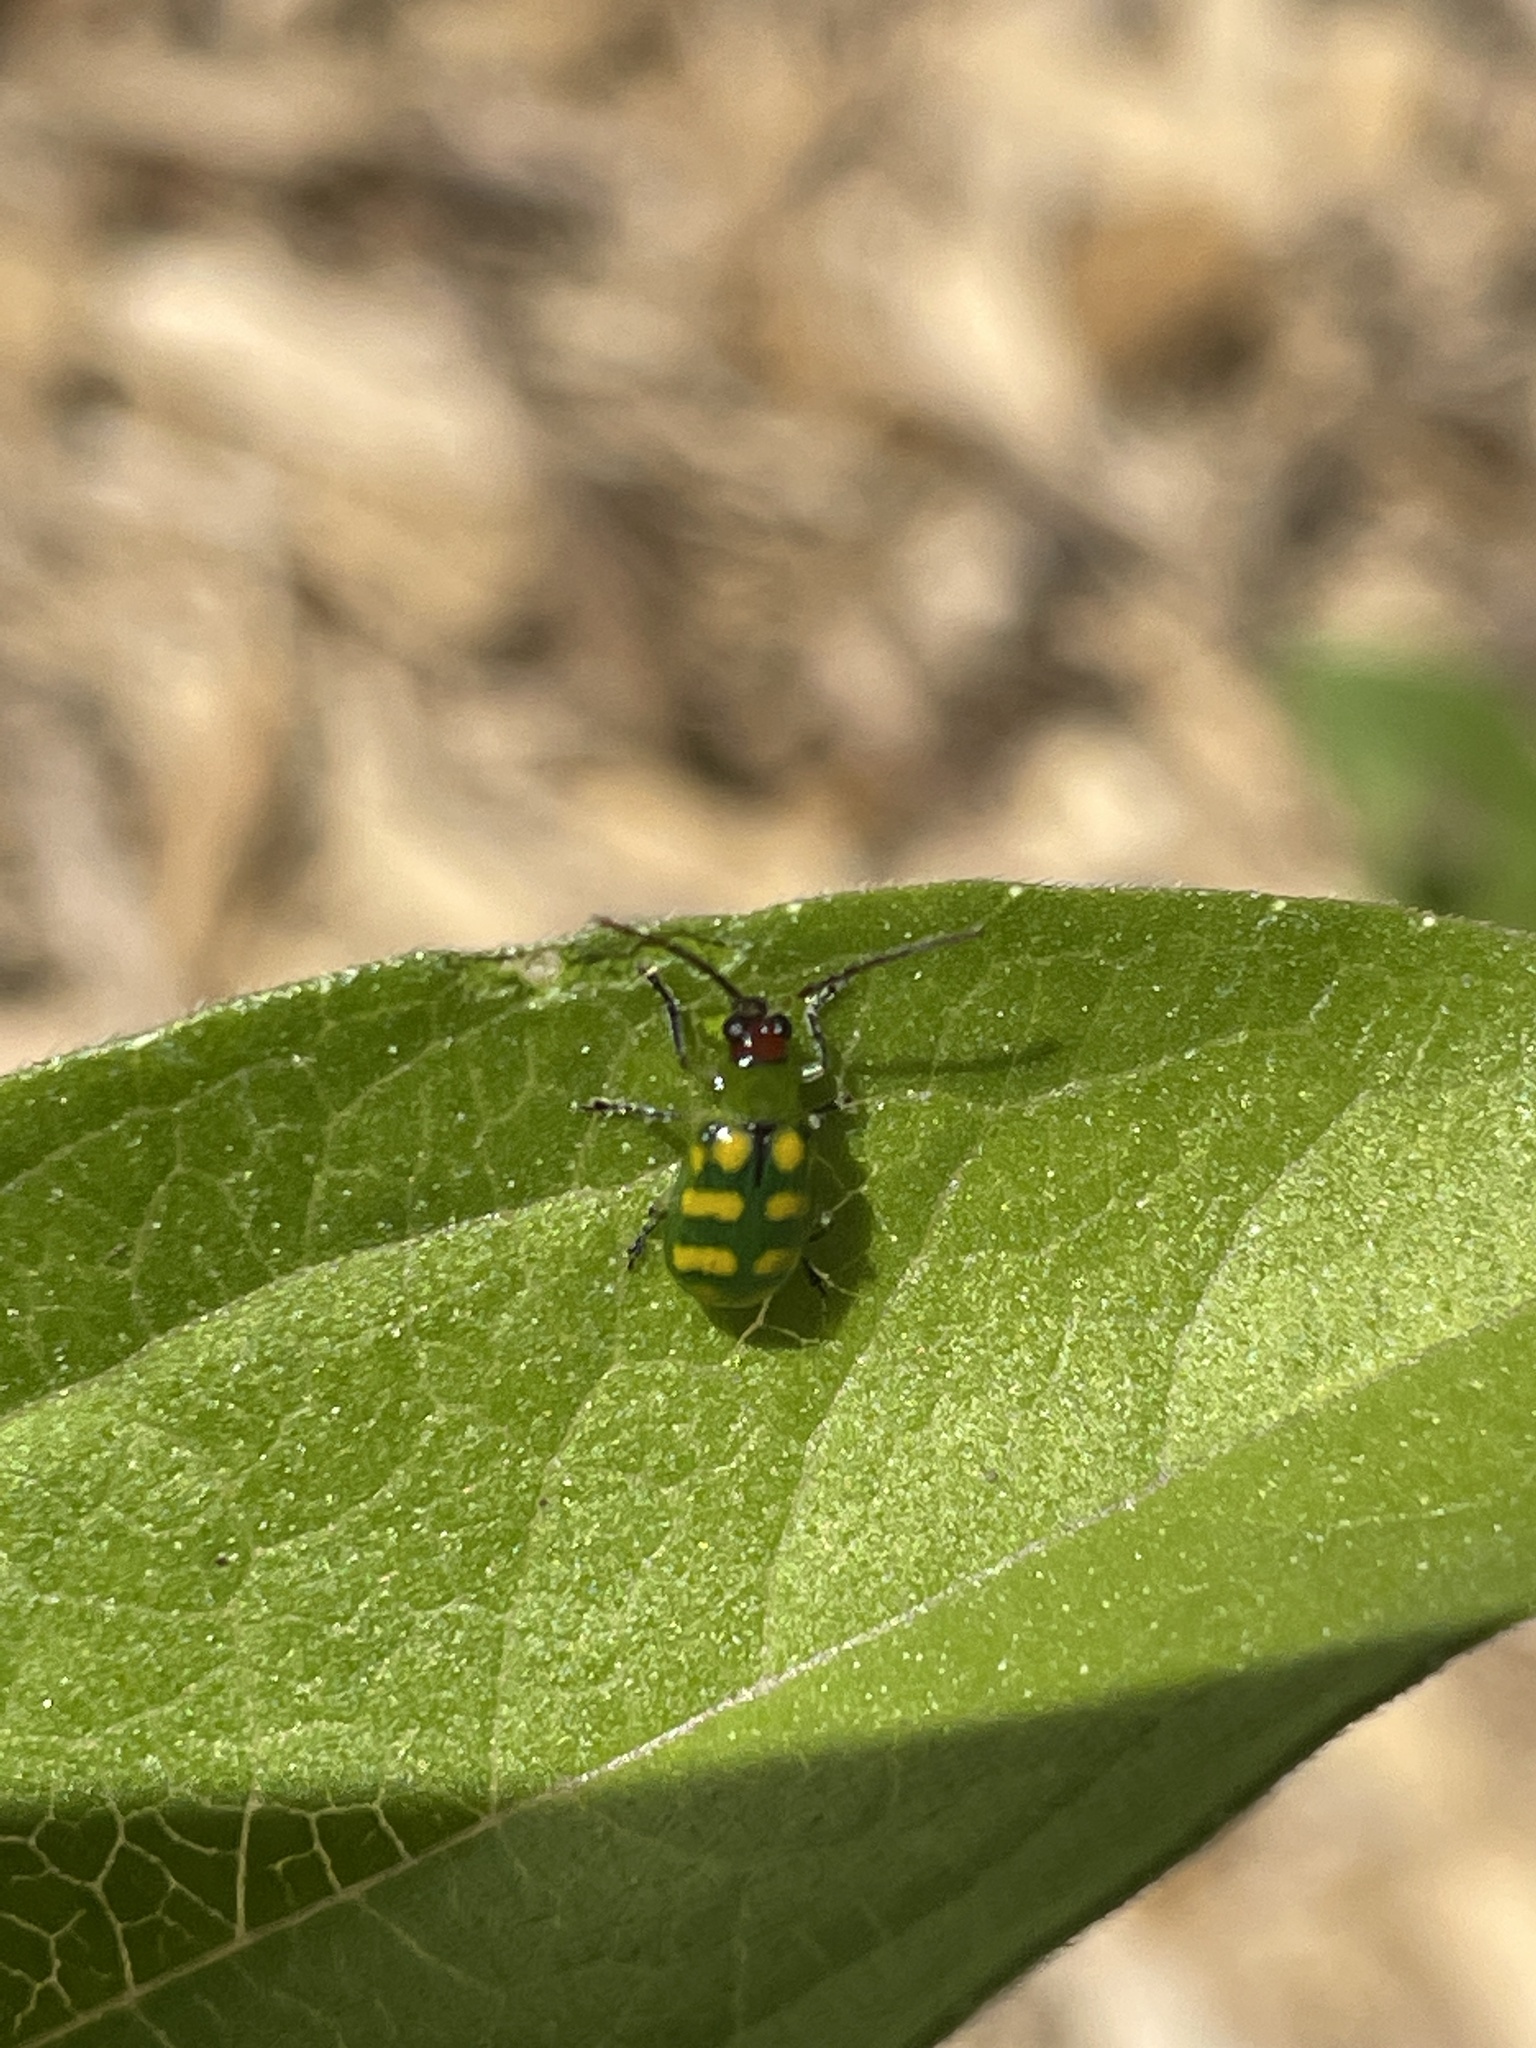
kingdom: Animalia
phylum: Arthropoda
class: Insecta
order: Coleoptera
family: Chrysomelidae
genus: Diabrotica
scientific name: Diabrotica balteata
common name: Leaf beetle
